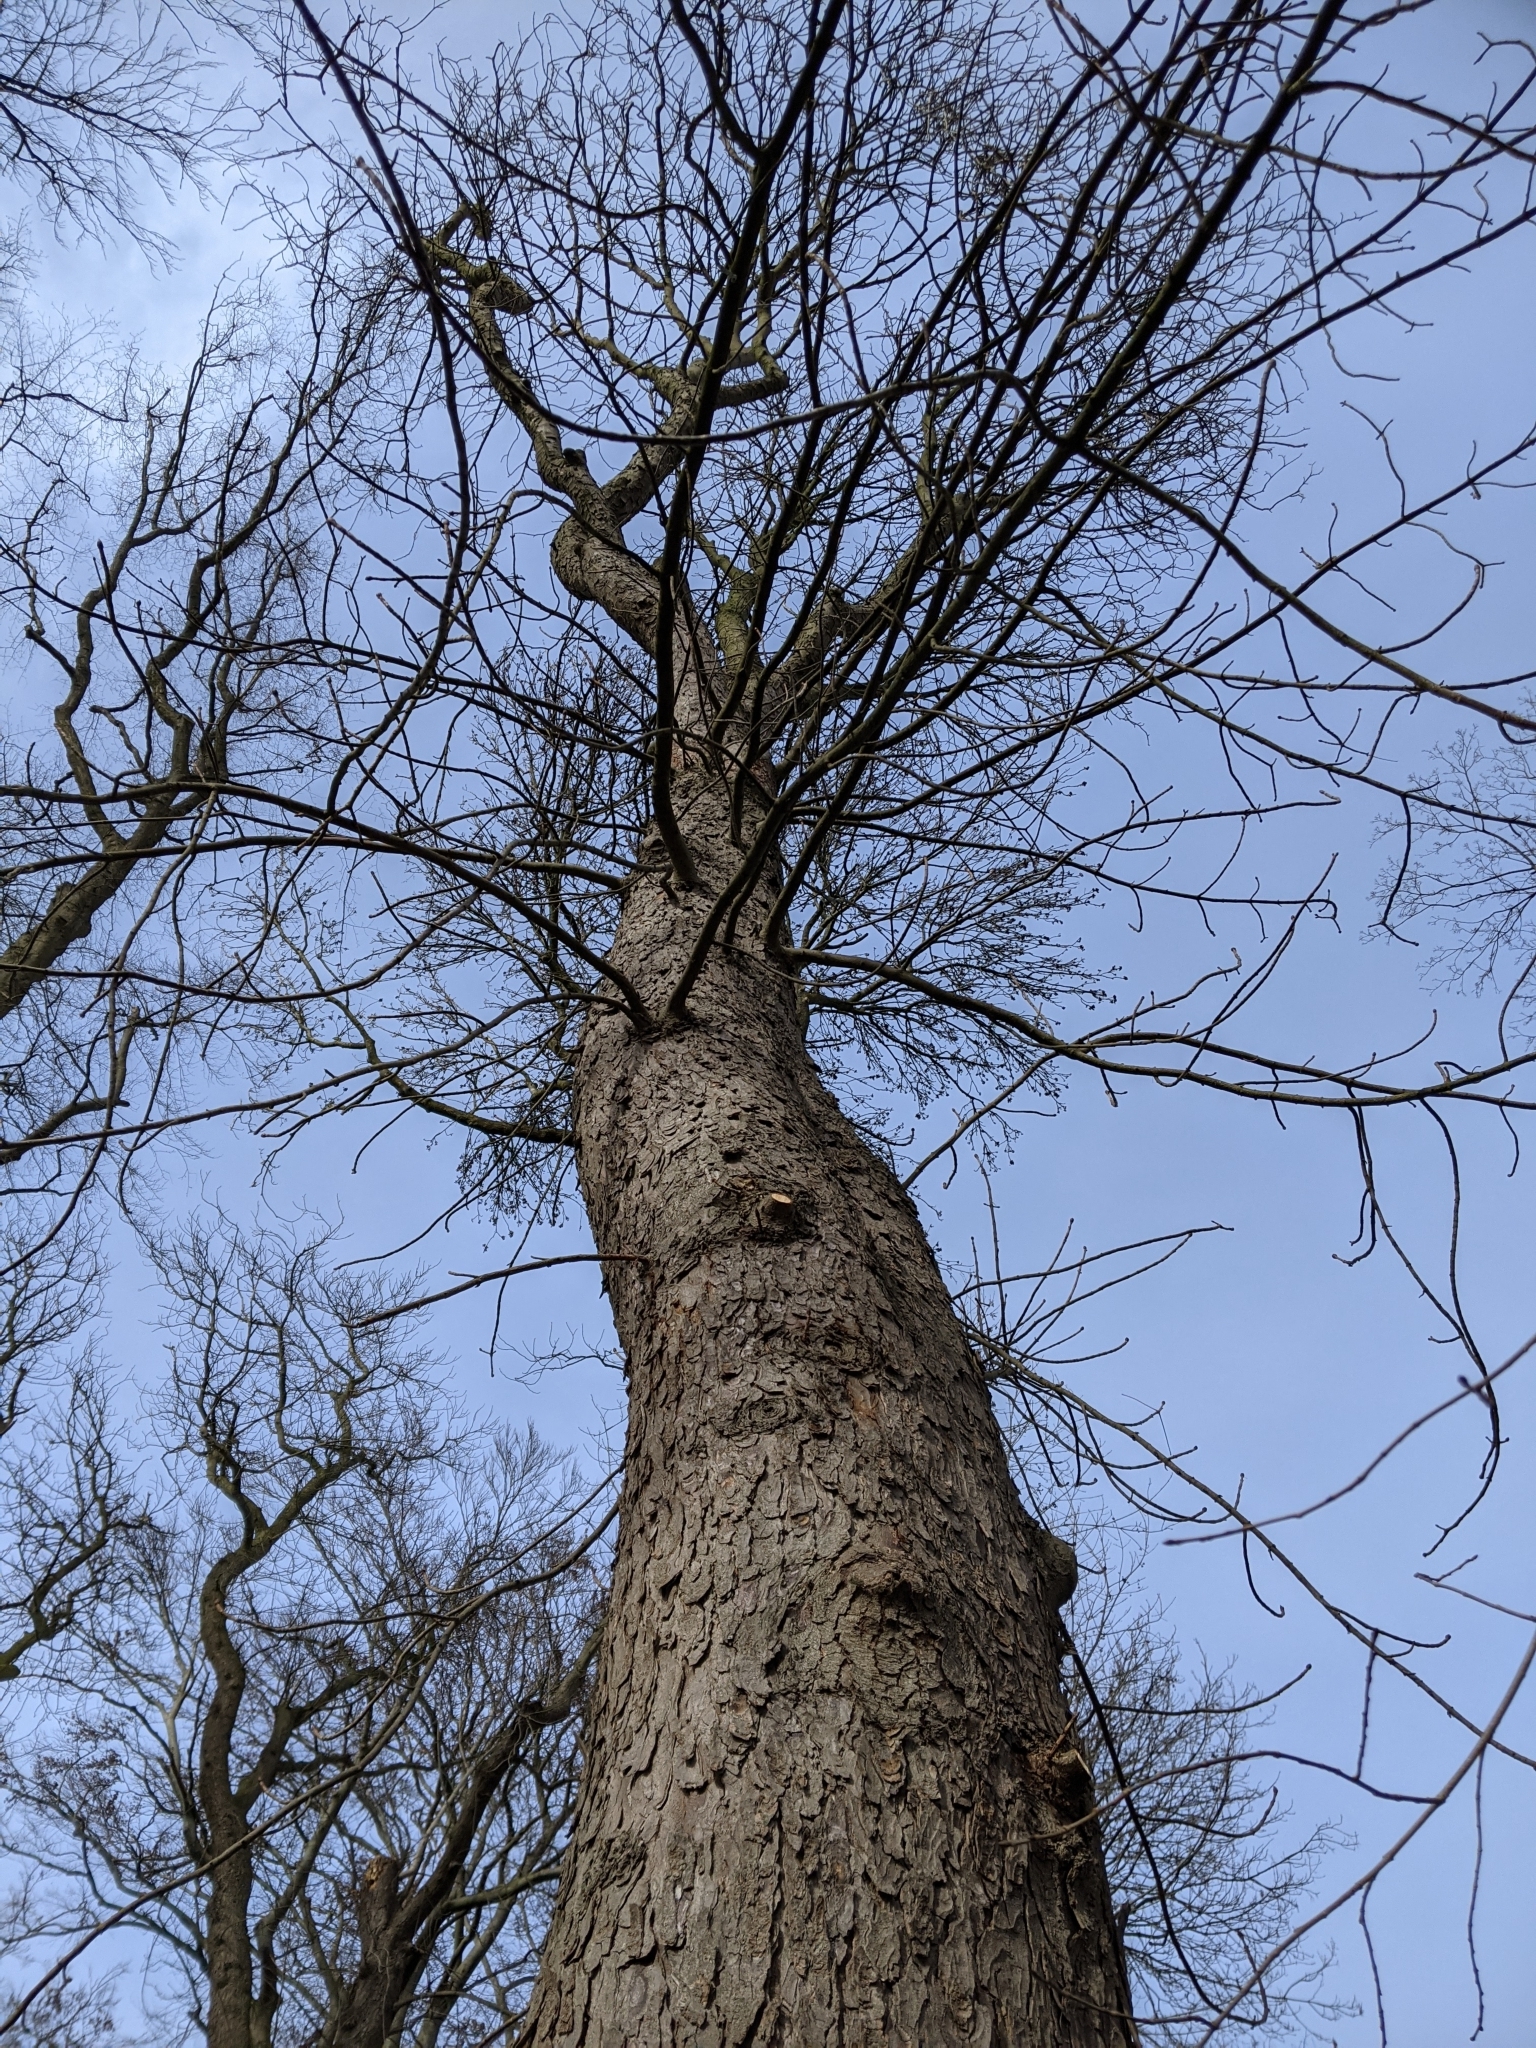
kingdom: Plantae
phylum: Tracheophyta
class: Magnoliopsida
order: Sapindales
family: Sapindaceae
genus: Aesculus
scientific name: Aesculus hippocastanum
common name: Horse-chestnut
